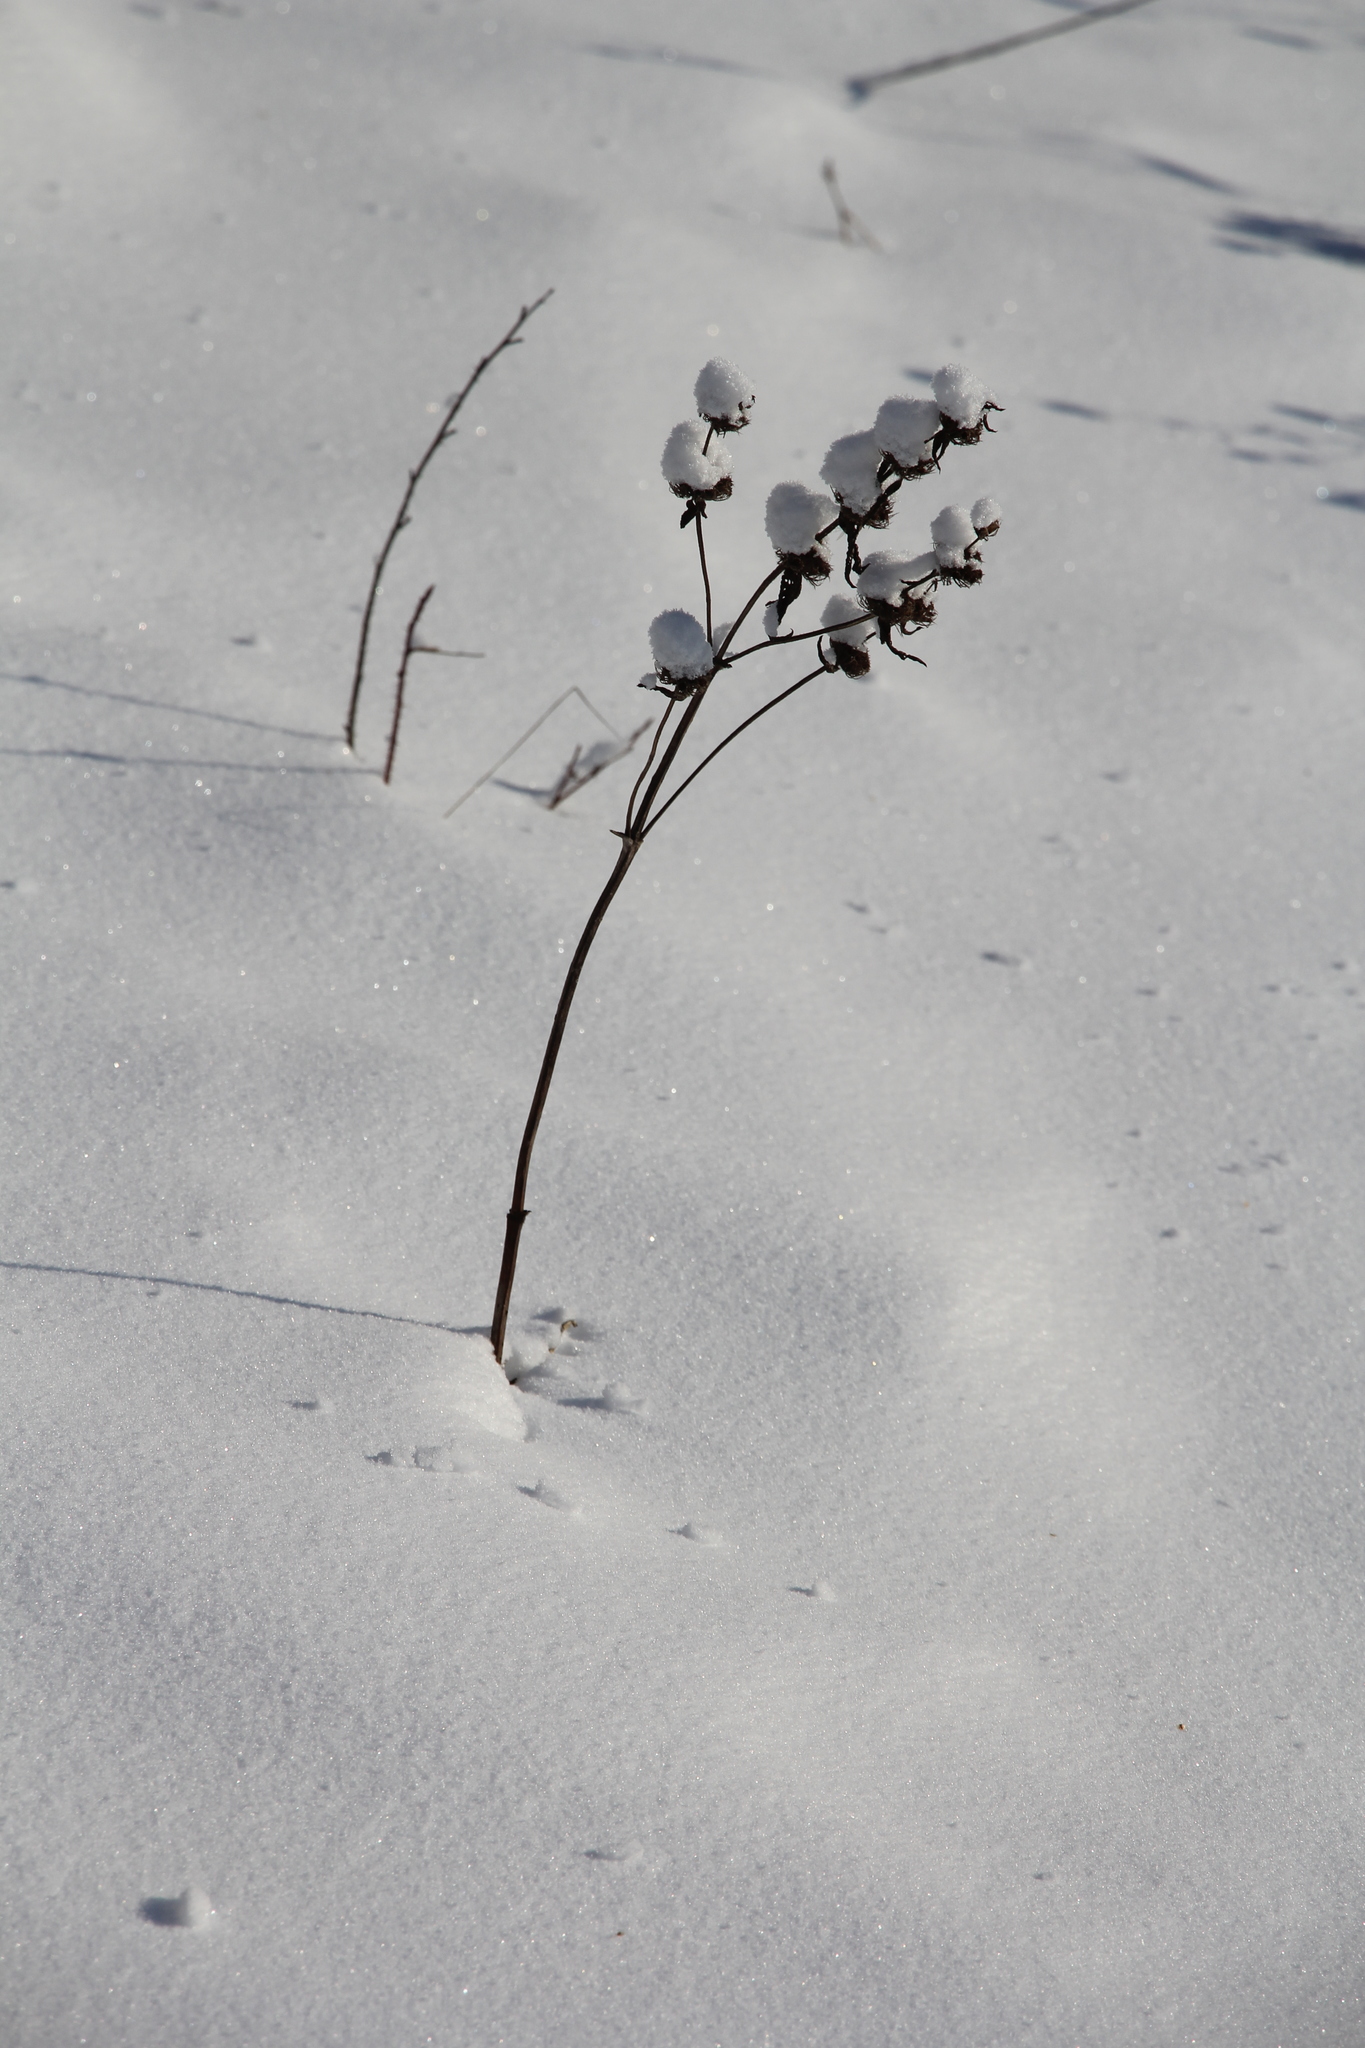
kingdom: Plantae
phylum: Tracheophyta
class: Magnoliopsida
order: Lamiales
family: Lamiaceae
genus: Phlomoides
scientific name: Phlomoides tuberosa
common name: Tuberous jerusalem sage
